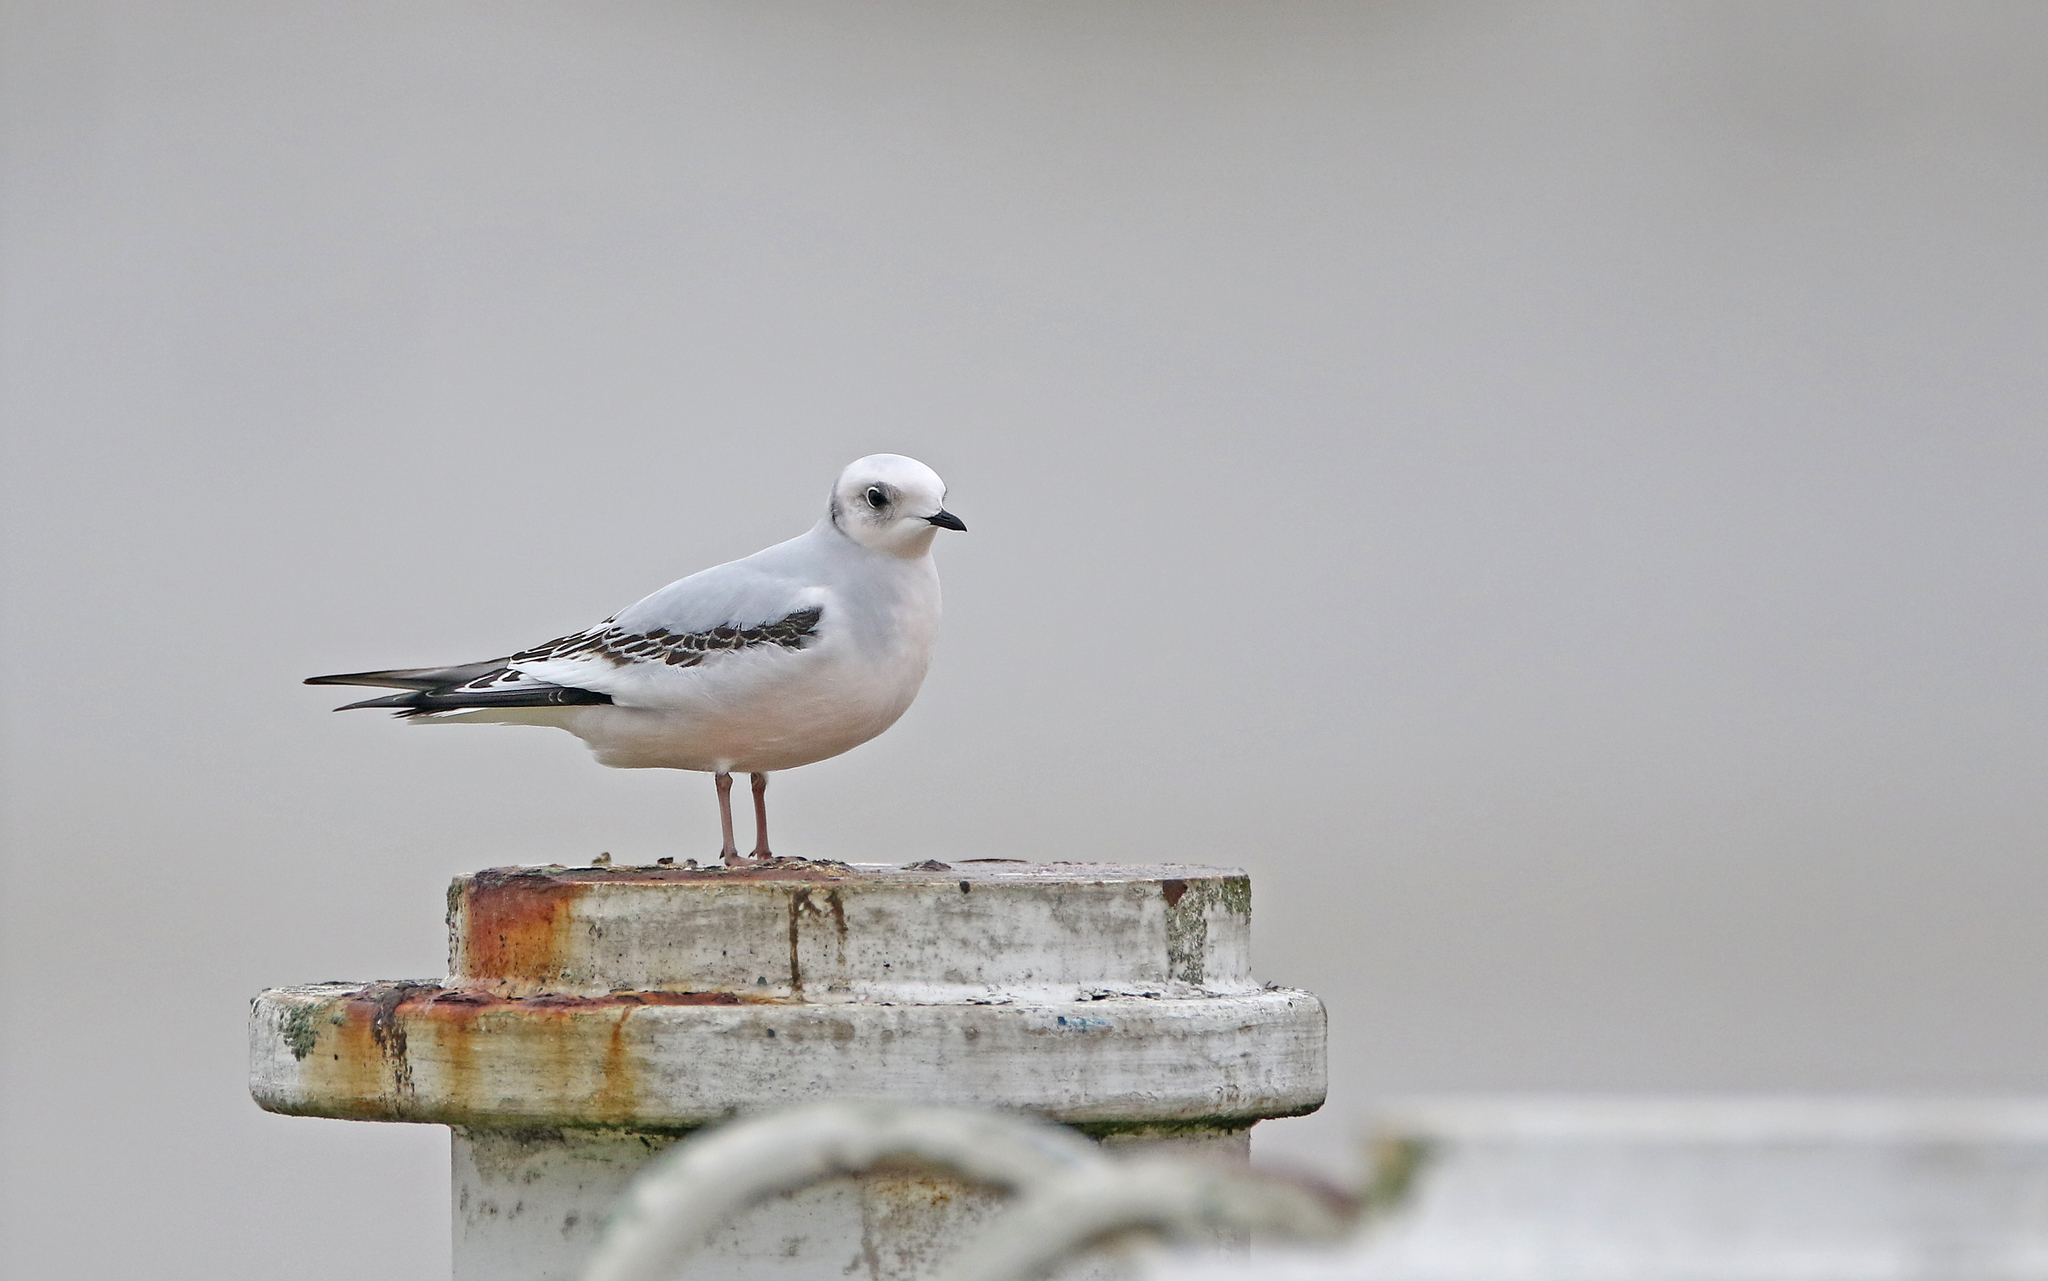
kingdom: Animalia
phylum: Chordata
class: Aves
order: Charadriiformes
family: Laridae
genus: Rhodostethia
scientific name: Rhodostethia rosea
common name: Ross's gull
